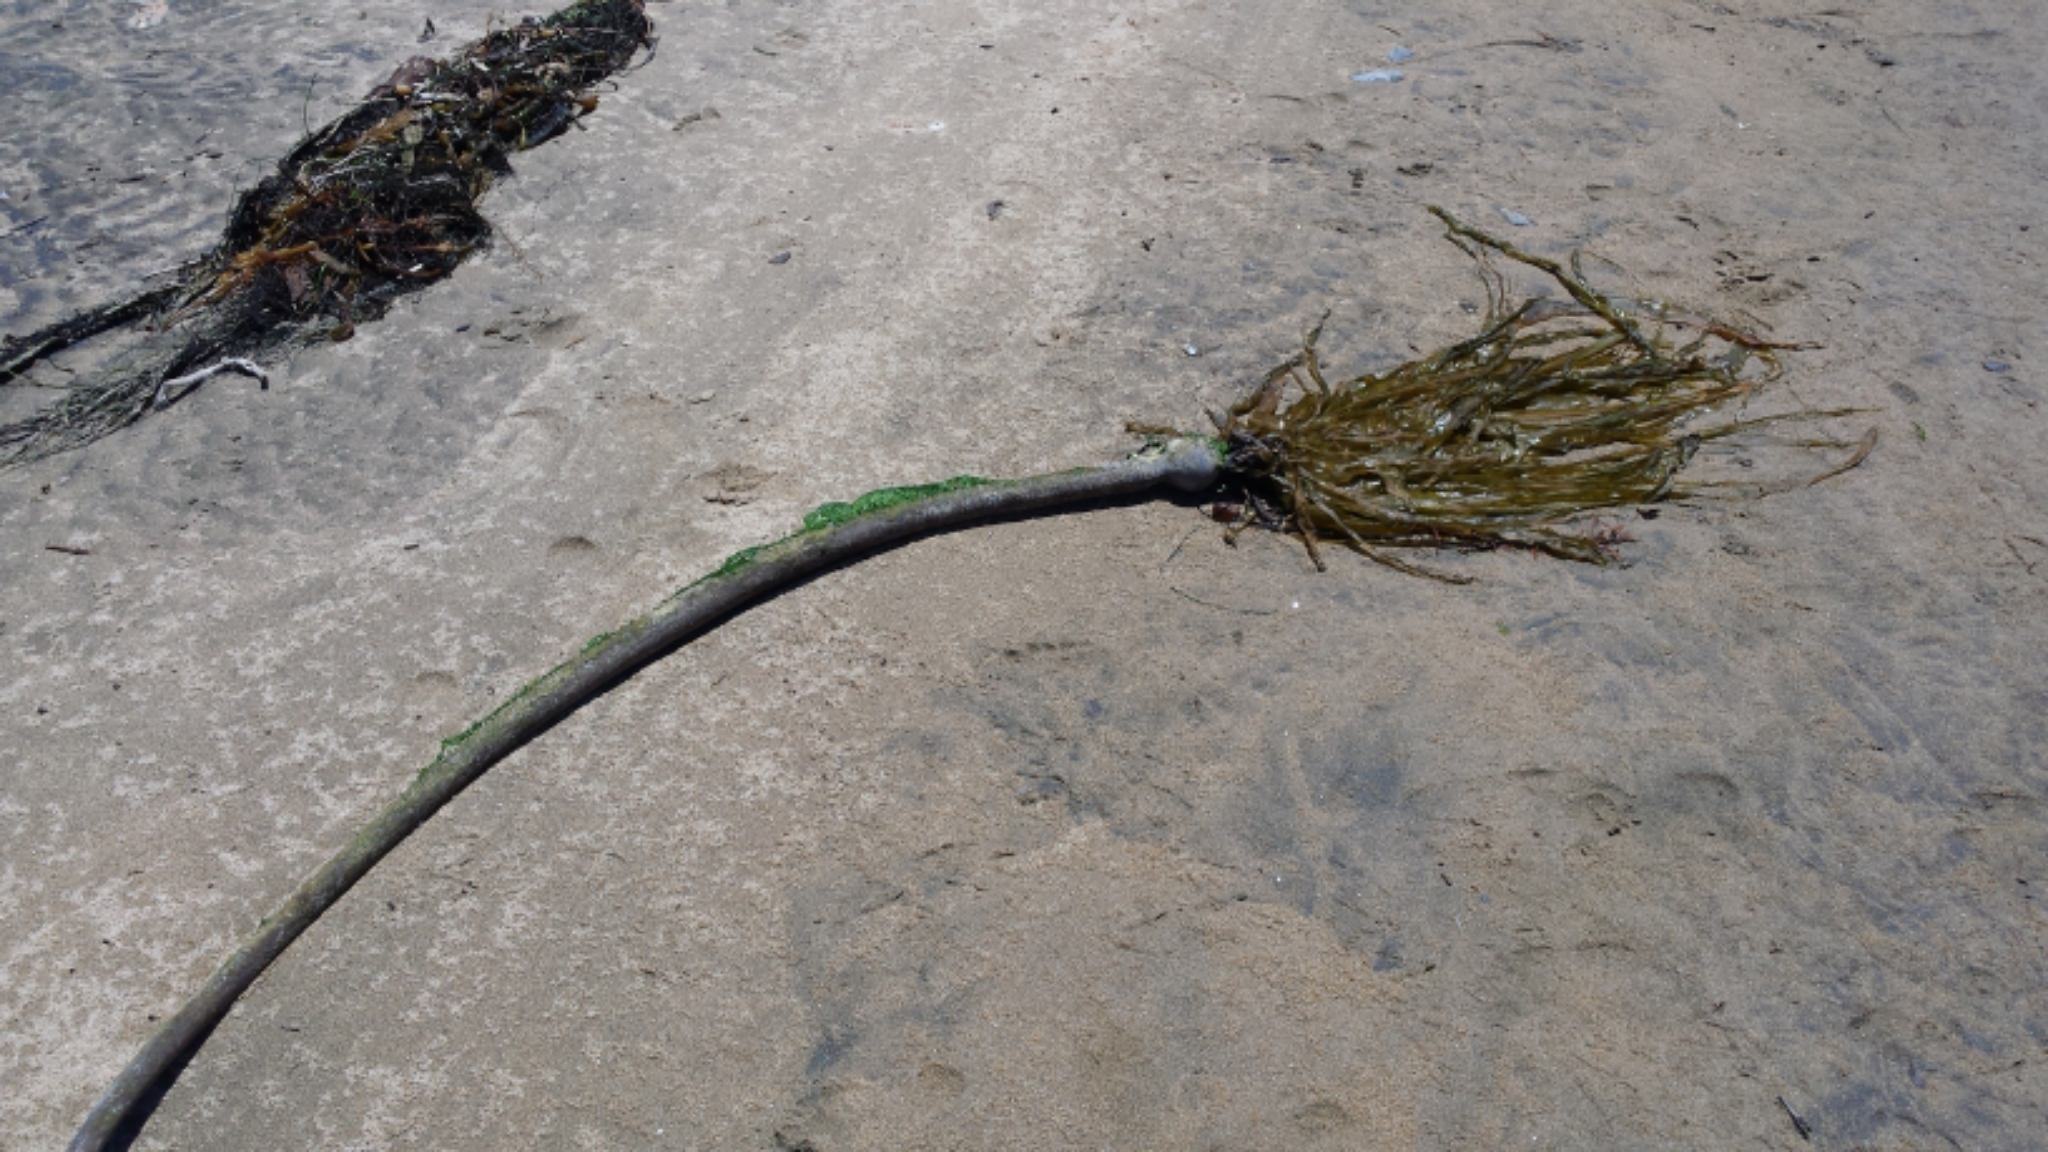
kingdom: Chromista
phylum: Ochrophyta
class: Phaeophyceae
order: Laminariales
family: Laminariaceae
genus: Nereocystis
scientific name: Nereocystis luetkeana
